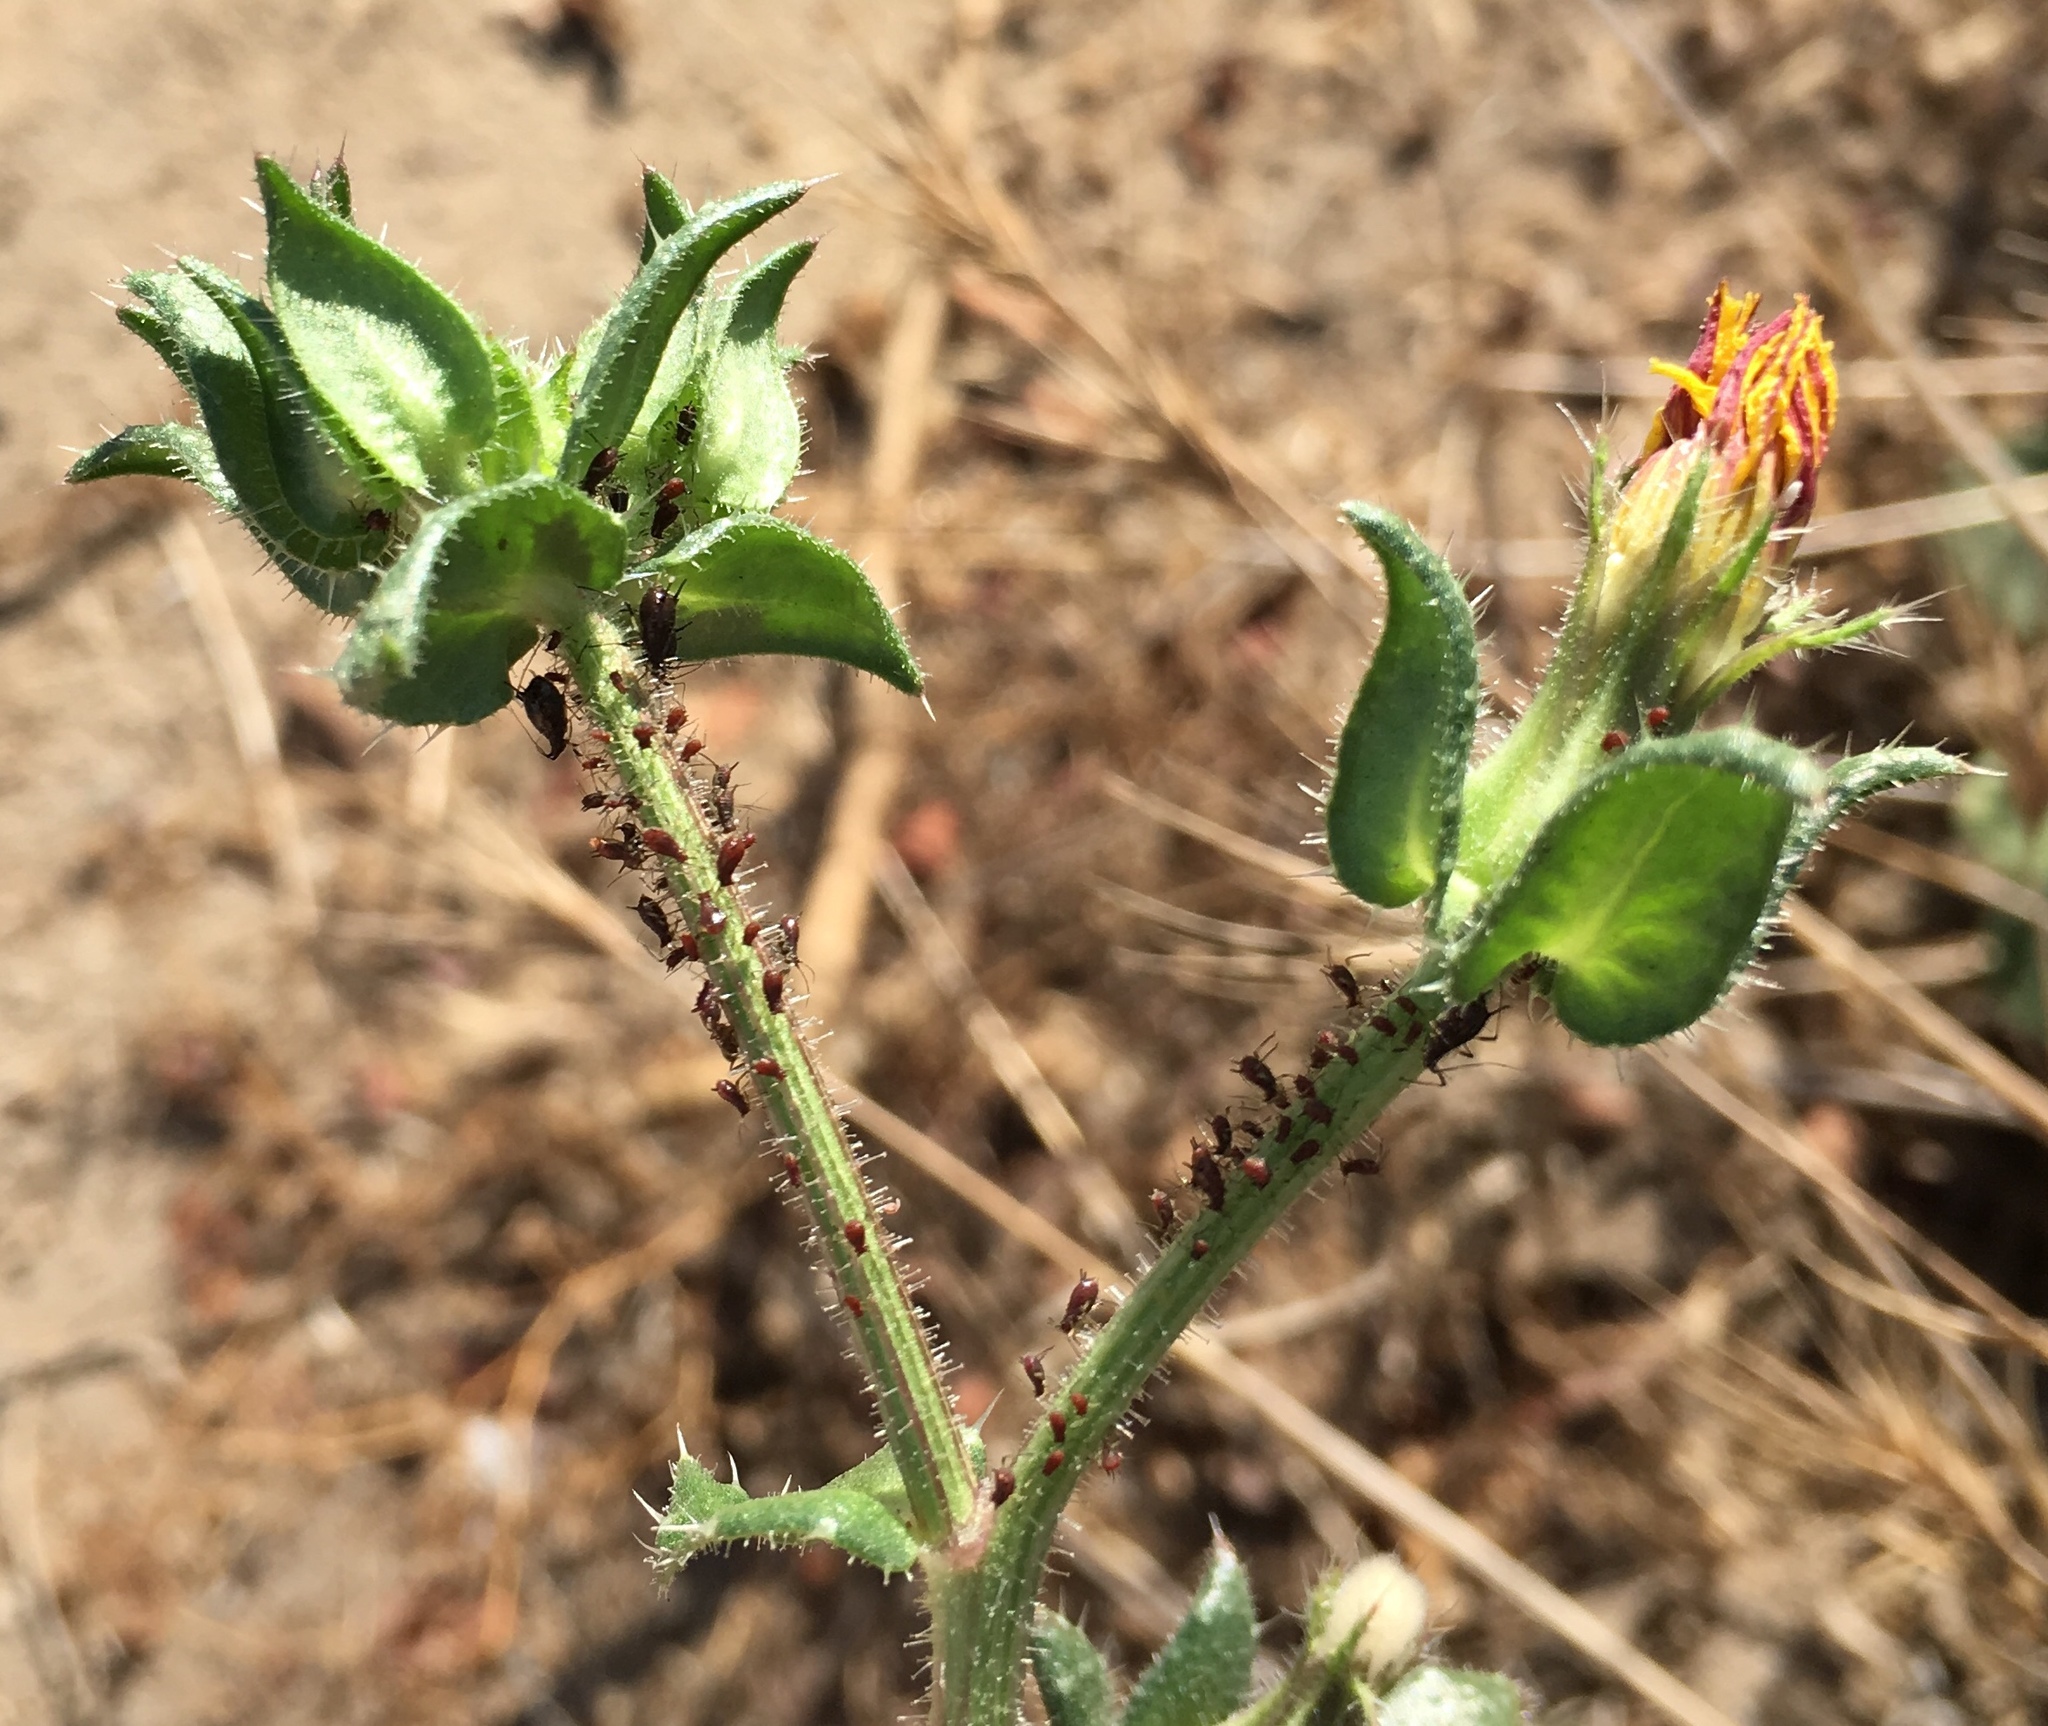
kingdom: Animalia
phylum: Arthropoda
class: Insecta
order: Hemiptera
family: Aphididae
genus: Uroleucon
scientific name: Uroleucon picridis
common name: Aphid
